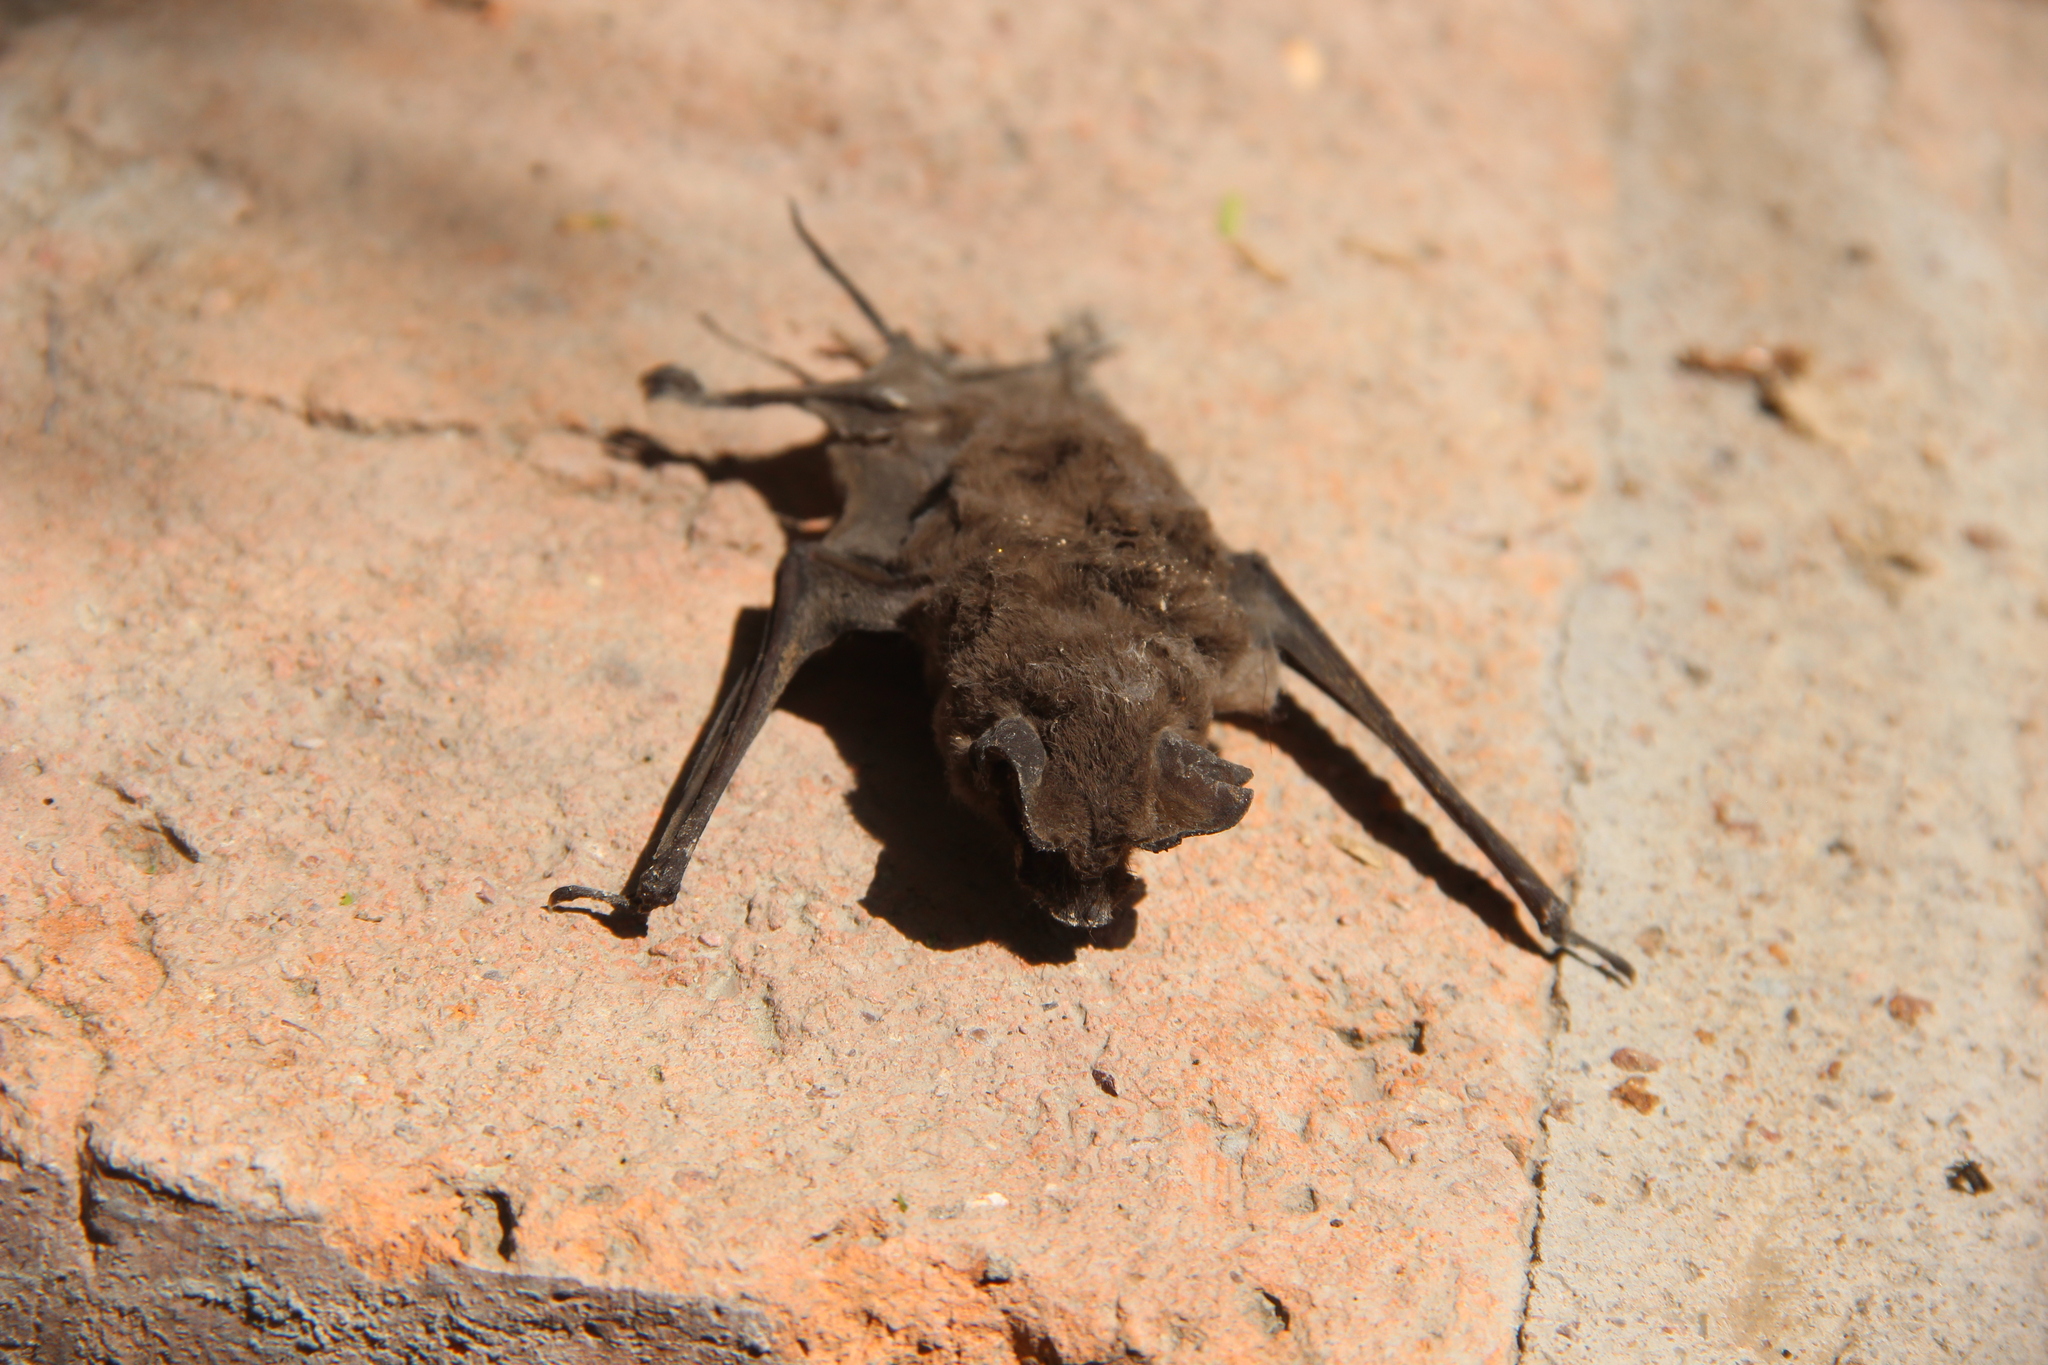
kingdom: Animalia
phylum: Chordata
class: Mammalia
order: Chiroptera
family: Molossidae
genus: Tadarida
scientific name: Tadarida brasiliensis
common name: Mexican free-tailed bat
